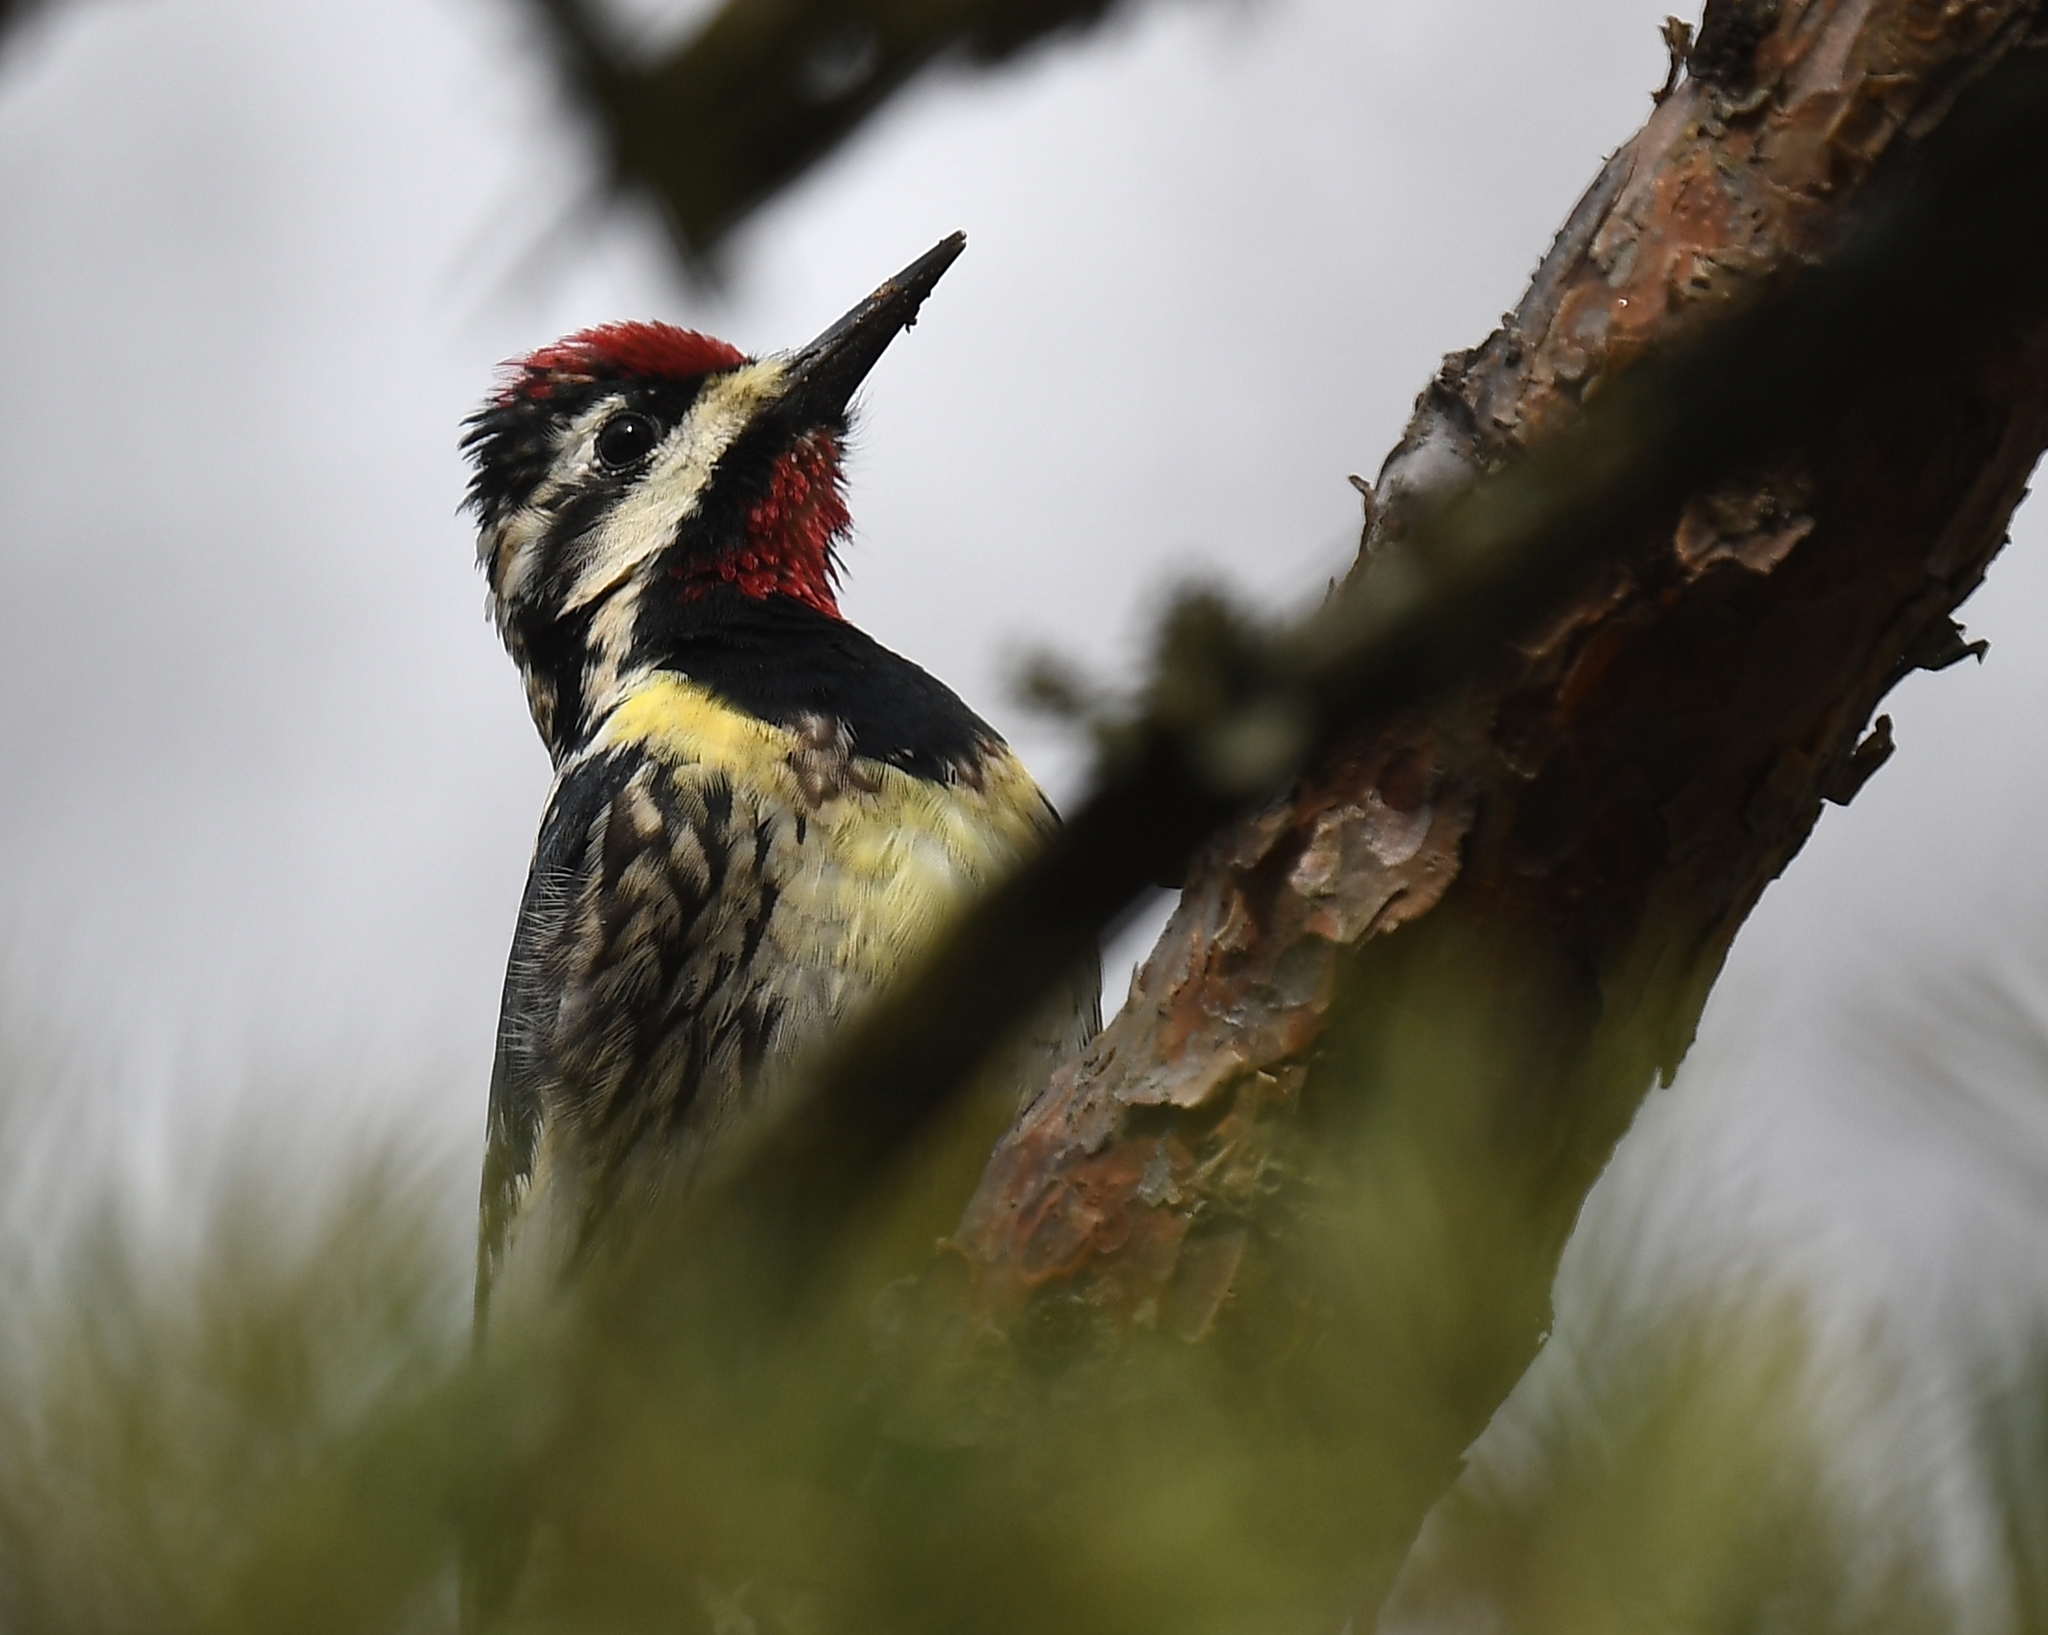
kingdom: Animalia
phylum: Chordata
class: Aves
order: Piciformes
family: Picidae
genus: Sphyrapicus
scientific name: Sphyrapicus varius
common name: Yellow-bellied sapsucker
